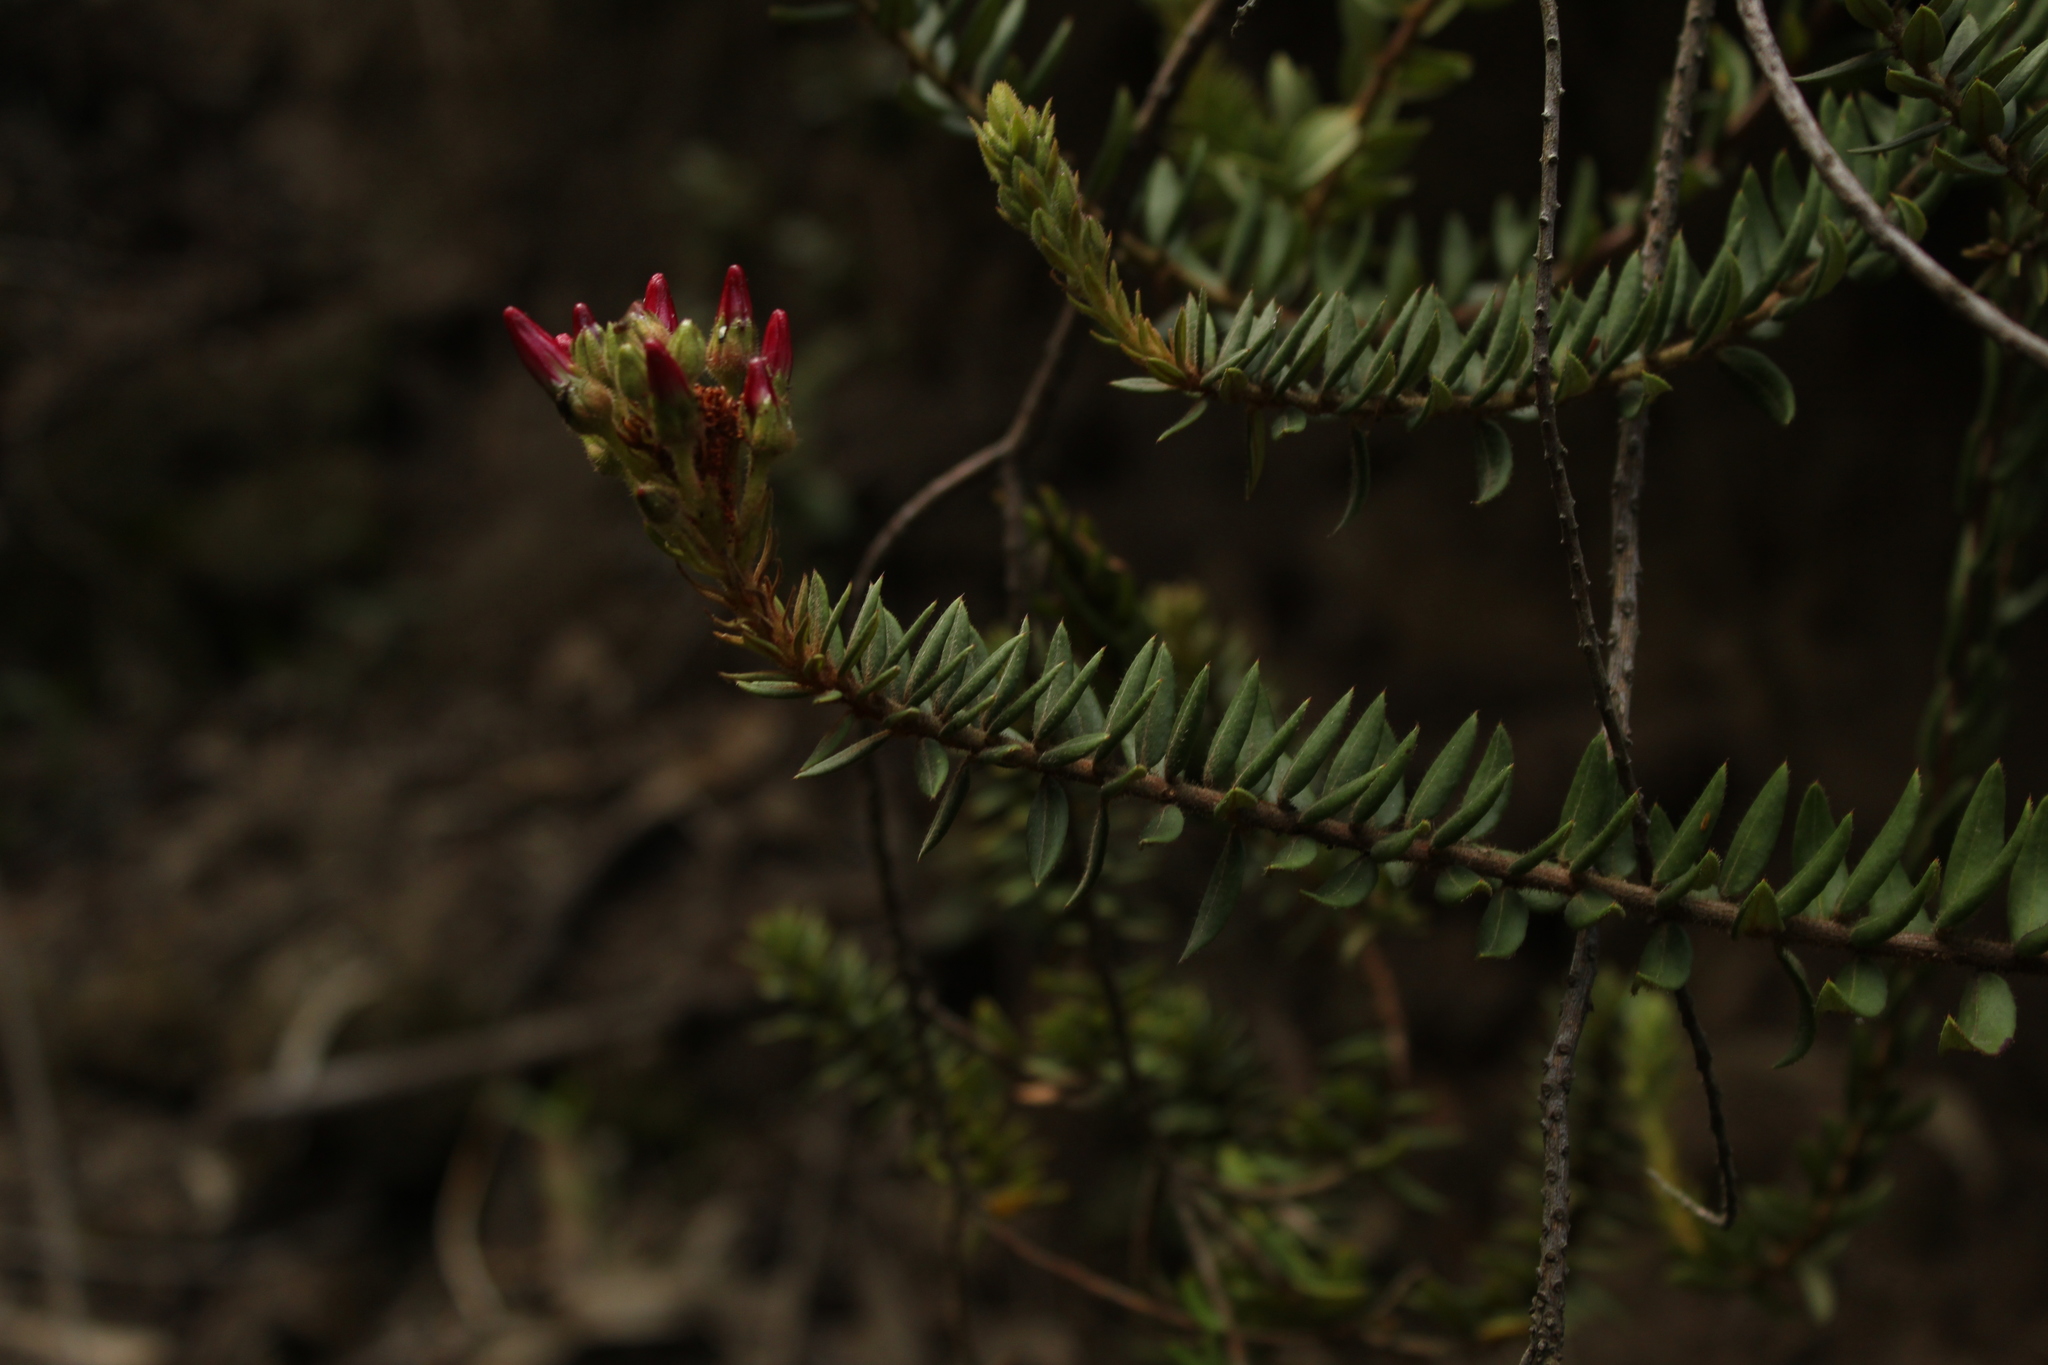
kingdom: Plantae
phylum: Tracheophyta
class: Magnoliopsida
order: Ericales
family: Ericaceae
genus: Bejaria
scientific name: Bejaria resinosa
